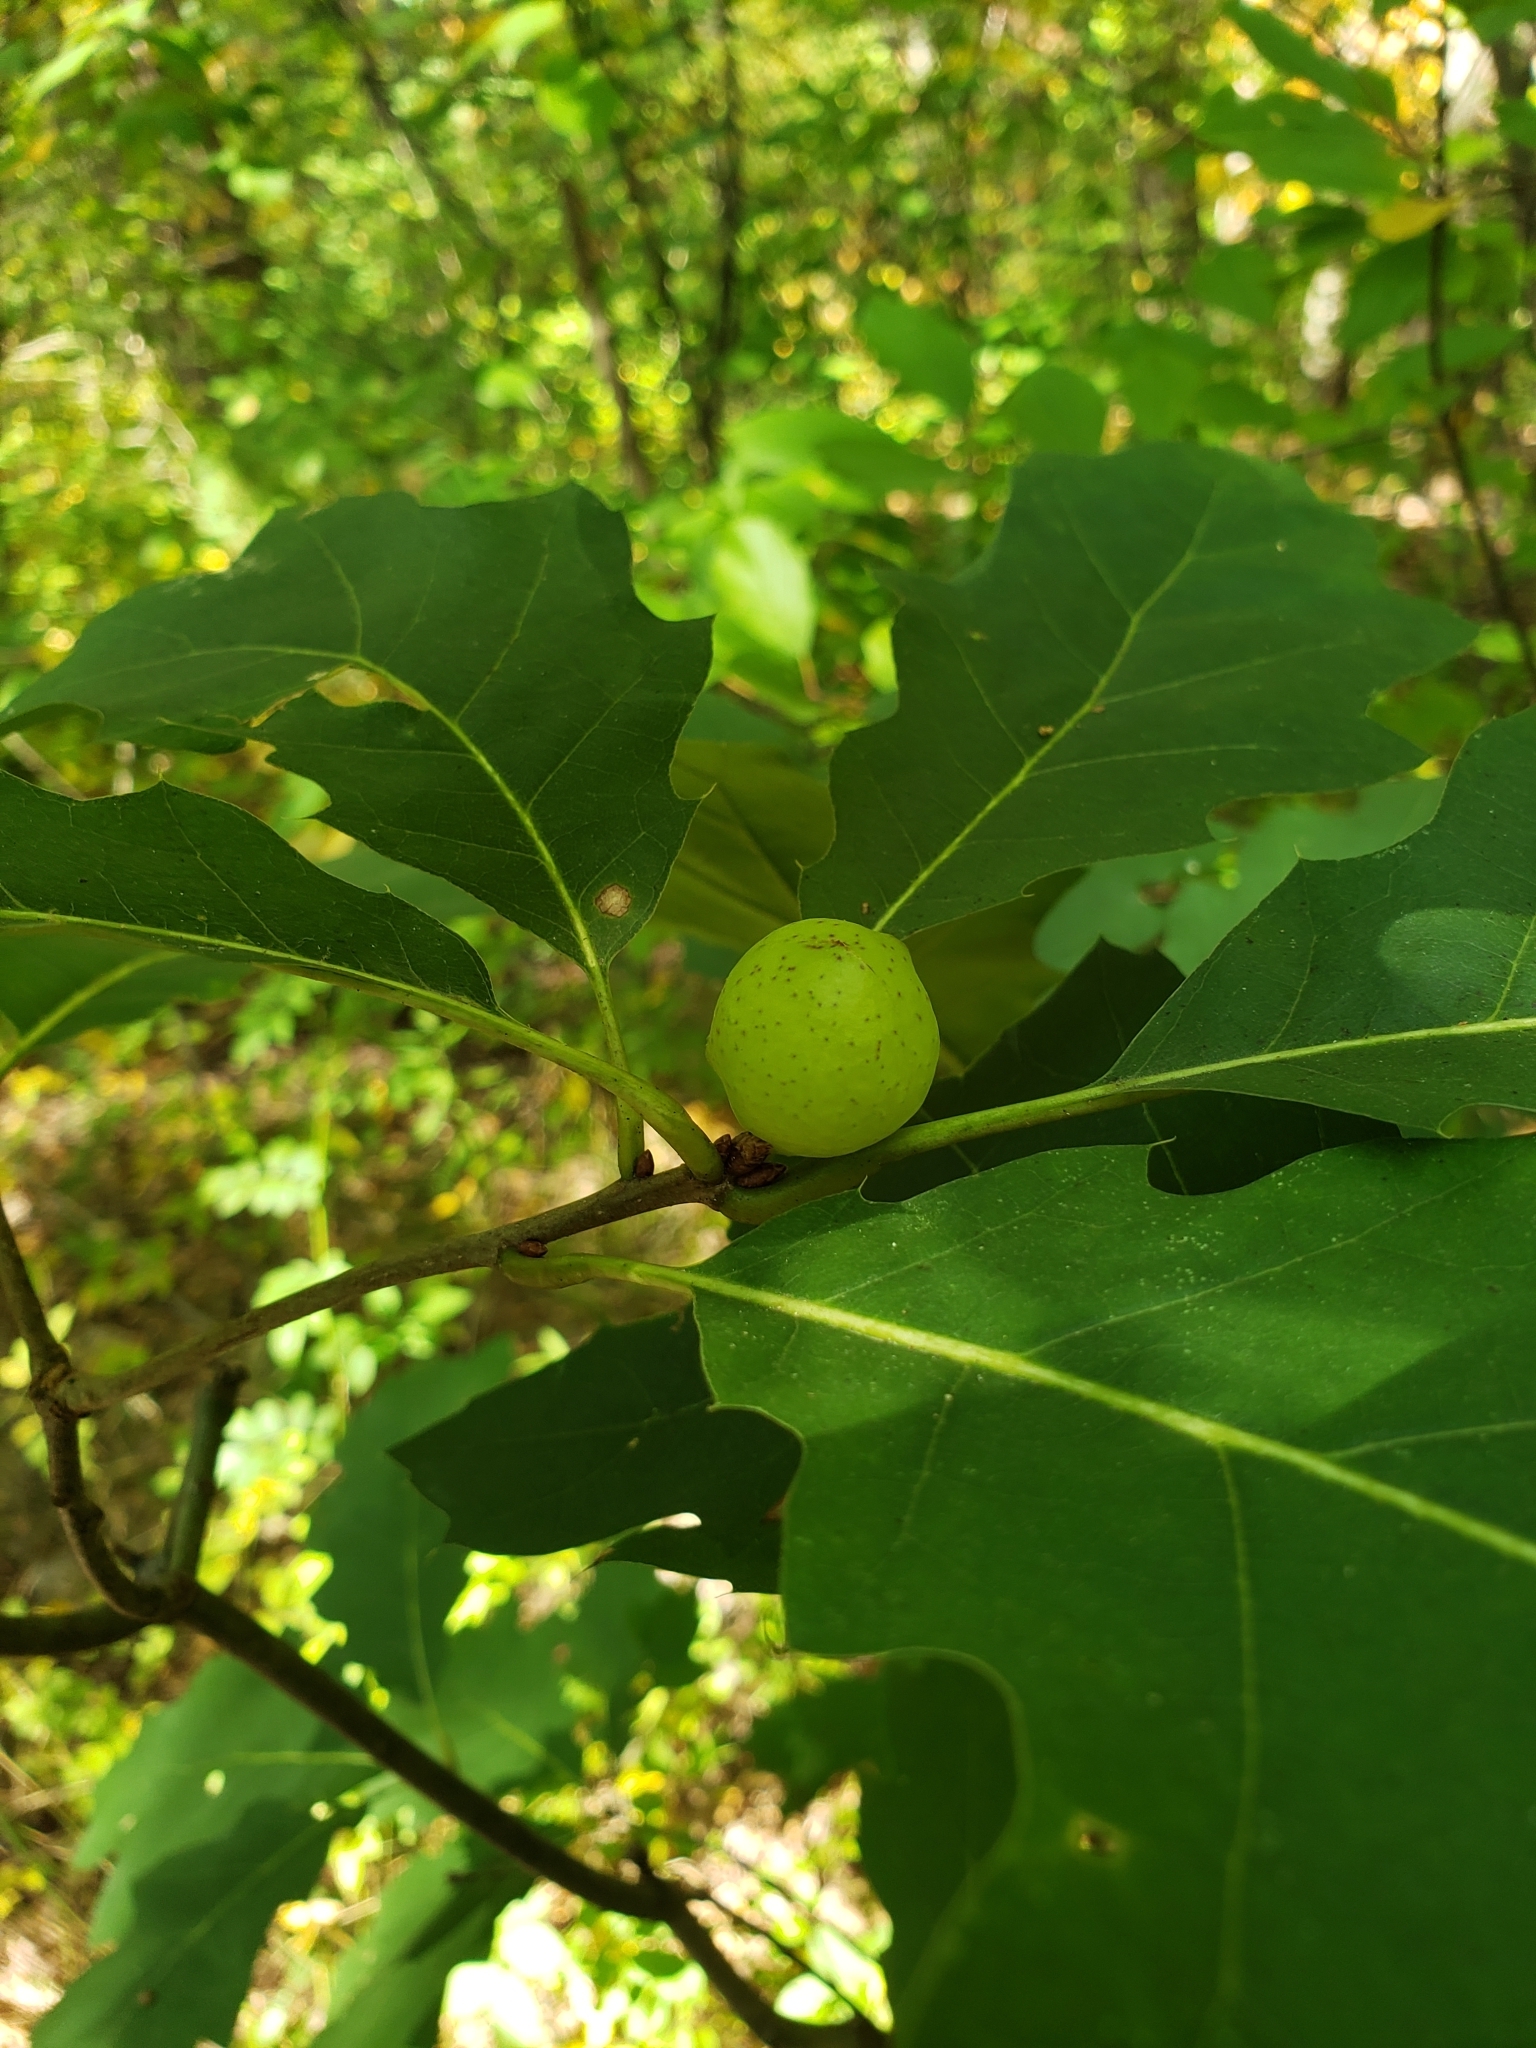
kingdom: Animalia
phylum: Arthropoda
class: Insecta
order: Hymenoptera
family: Cynipidae
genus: Amphibolips
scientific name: Amphibolips
